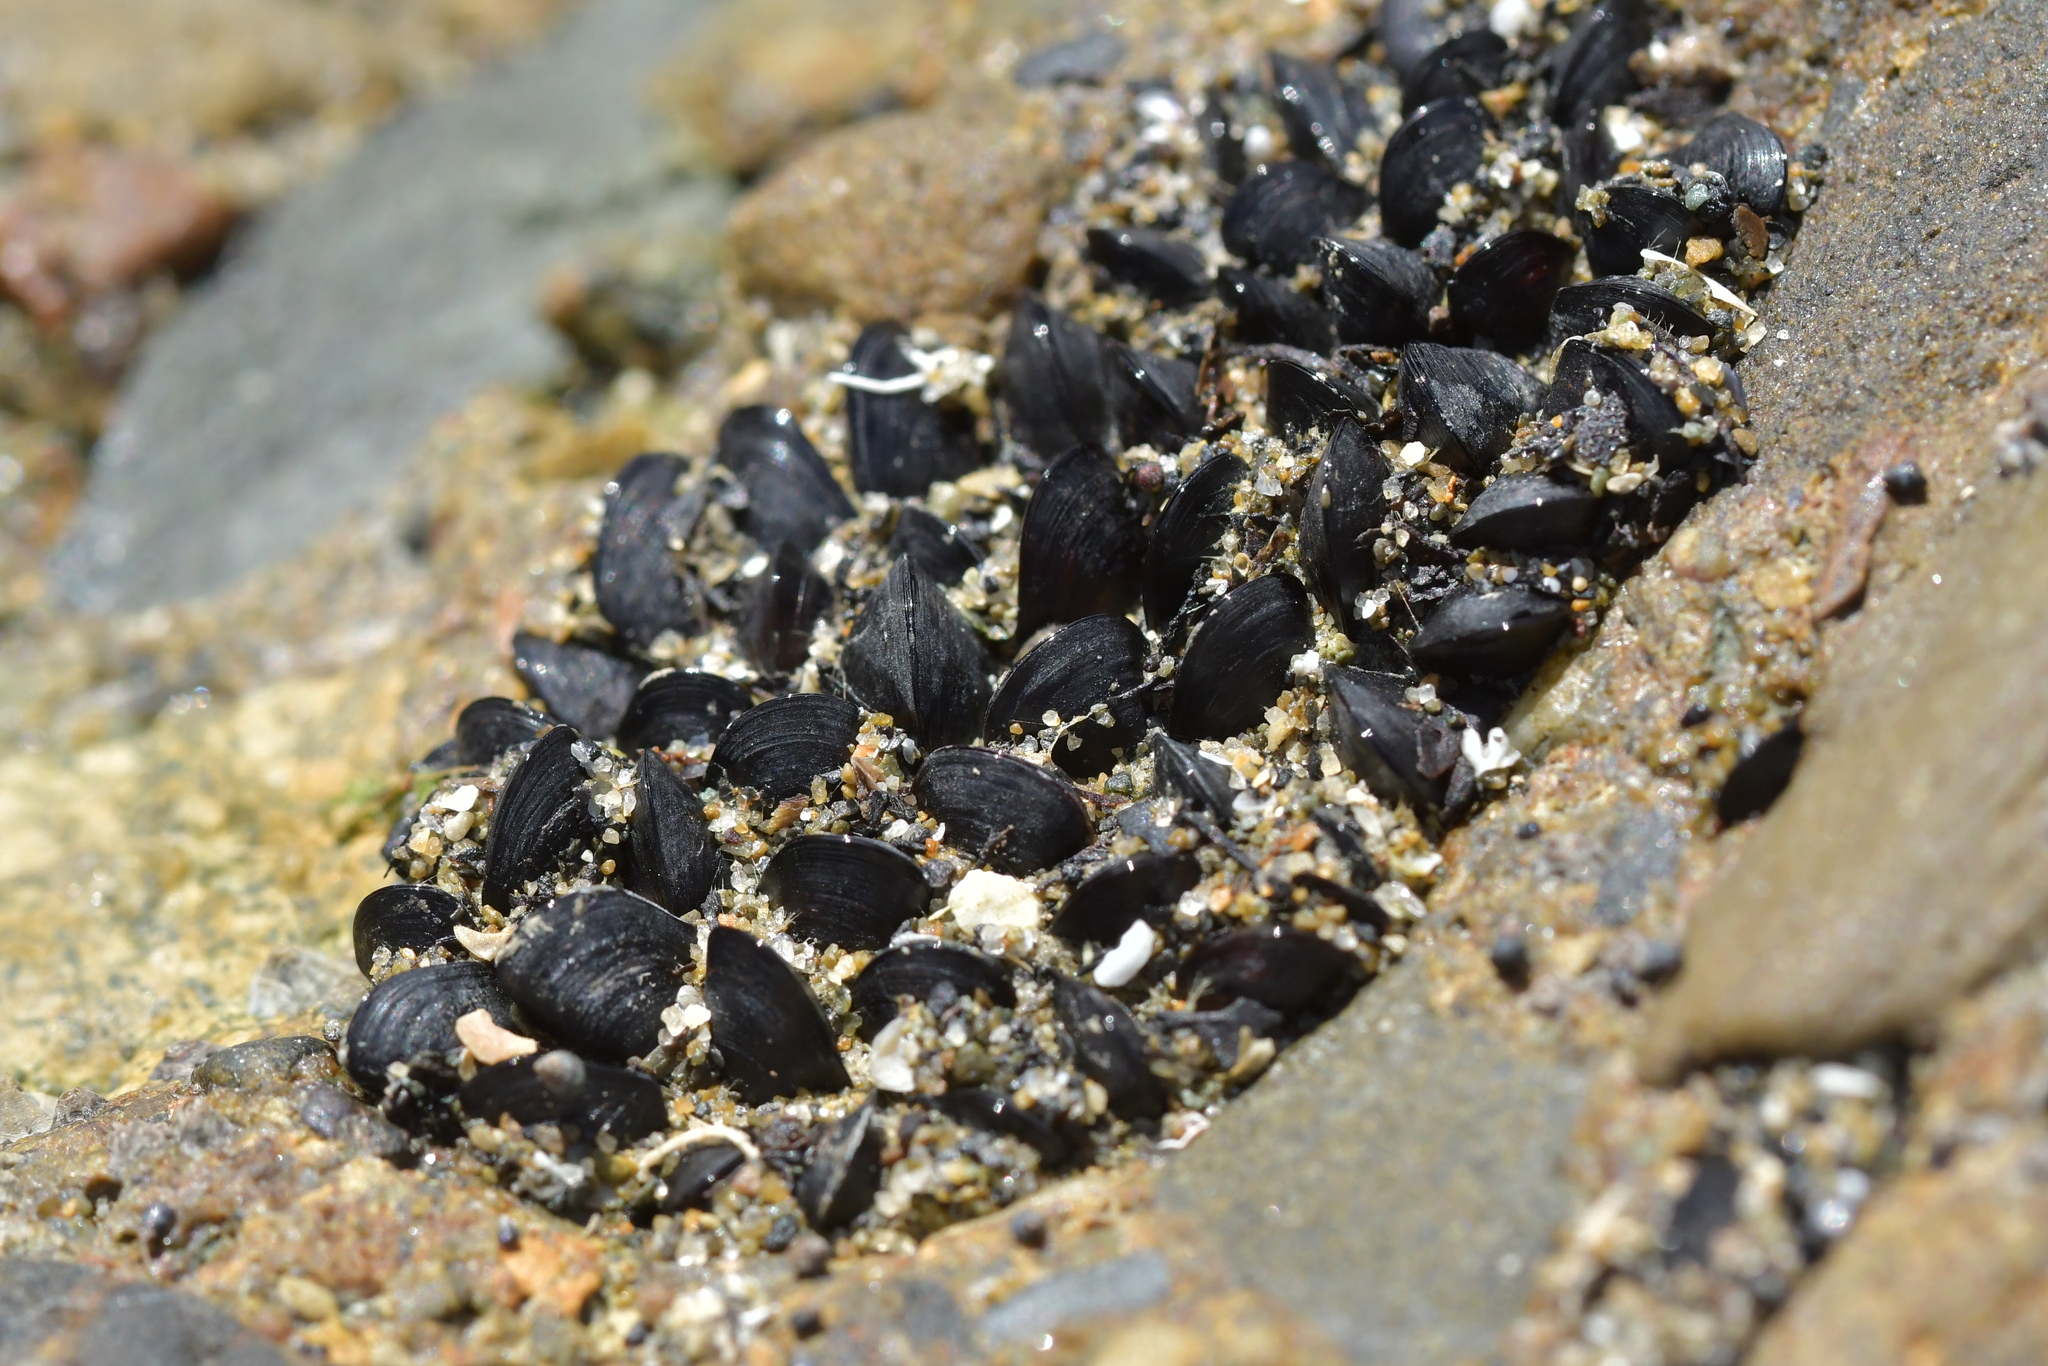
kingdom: Animalia
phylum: Mollusca
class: Bivalvia
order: Mytilida
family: Mytilidae
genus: Xenostrobus
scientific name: Xenostrobus neozelanicus
